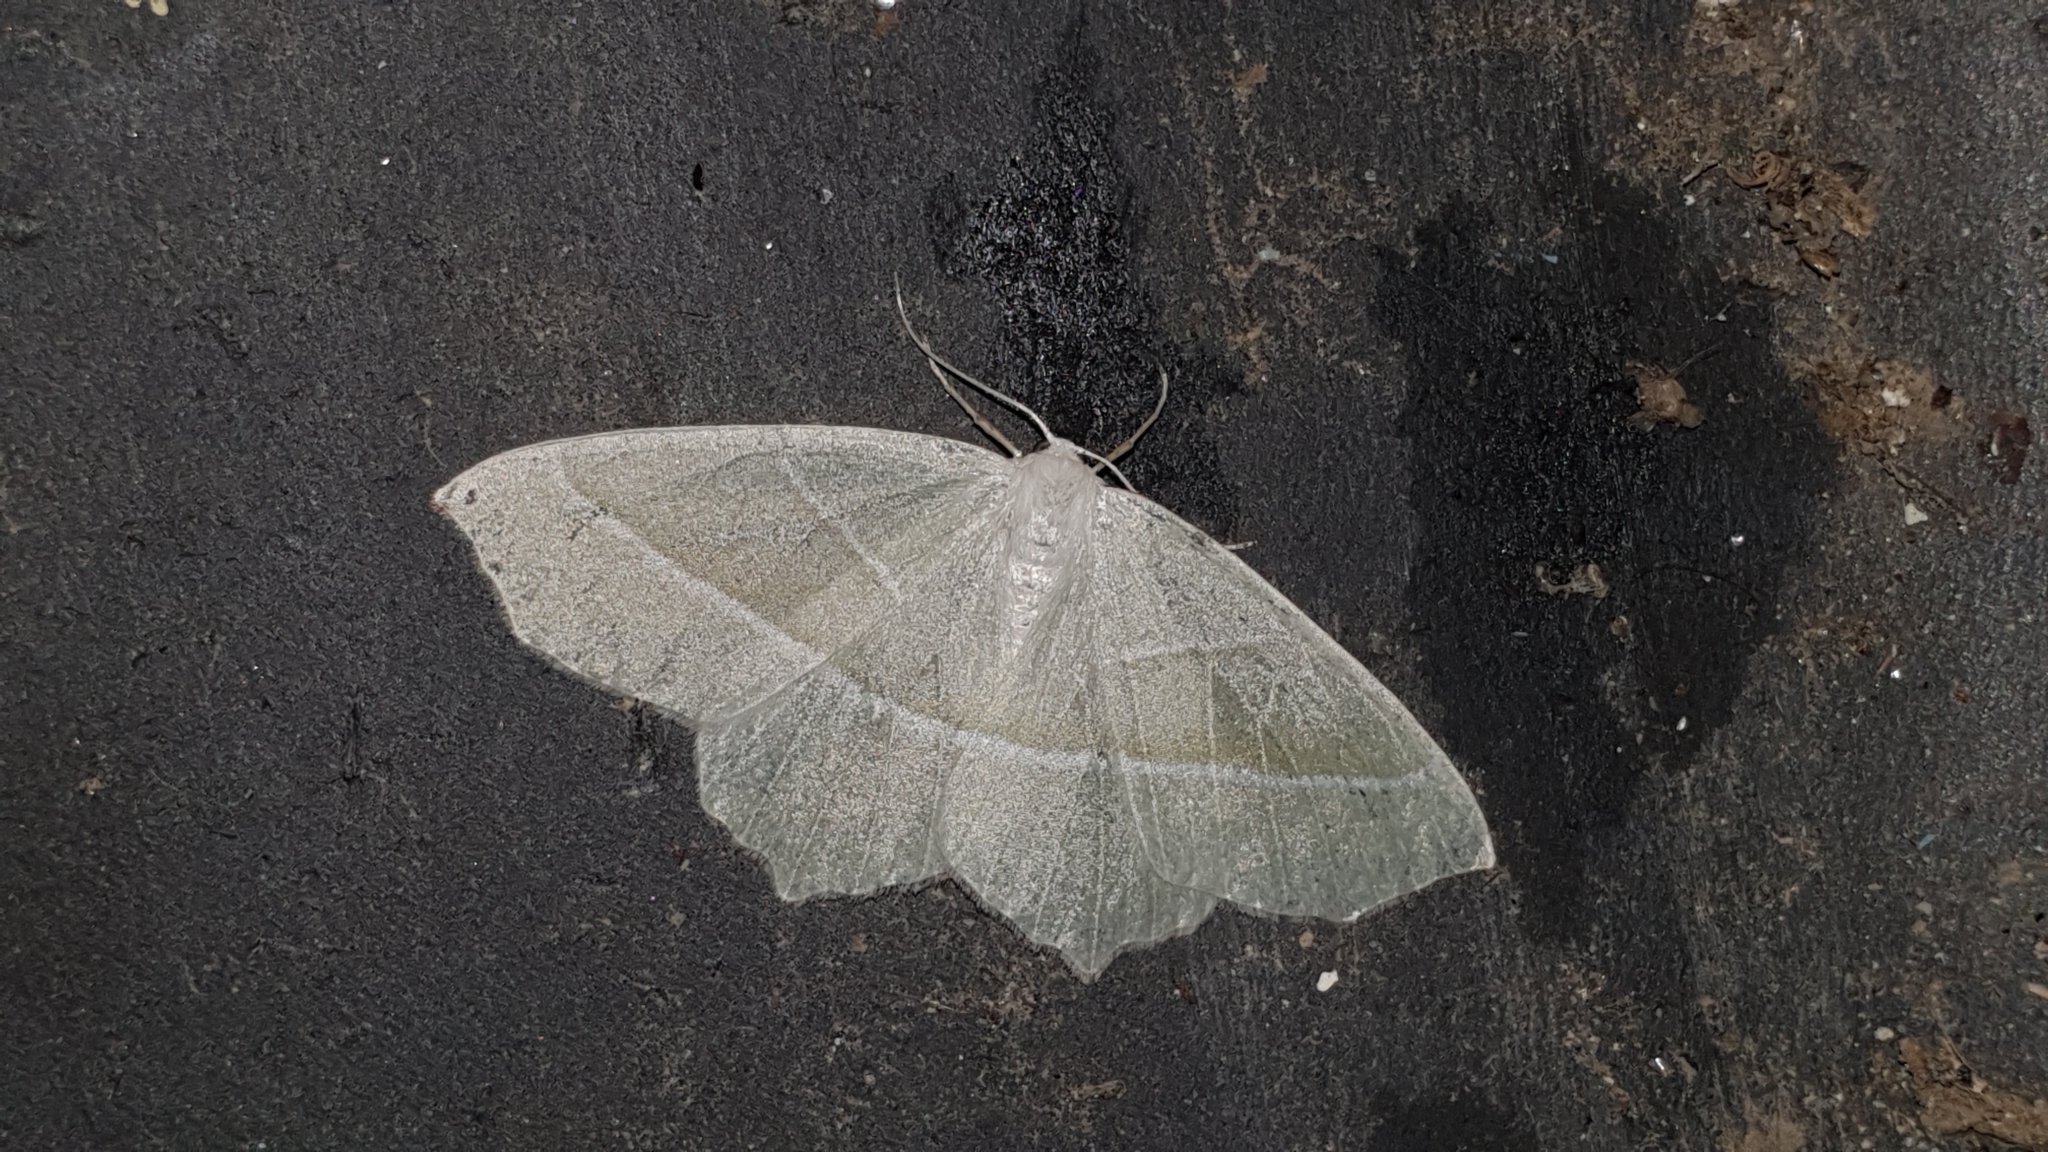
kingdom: Animalia
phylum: Arthropoda
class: Insecta
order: Lepidoptera
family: Geometridae
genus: Campaea
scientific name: Campaea margaritaria
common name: Light emerald
